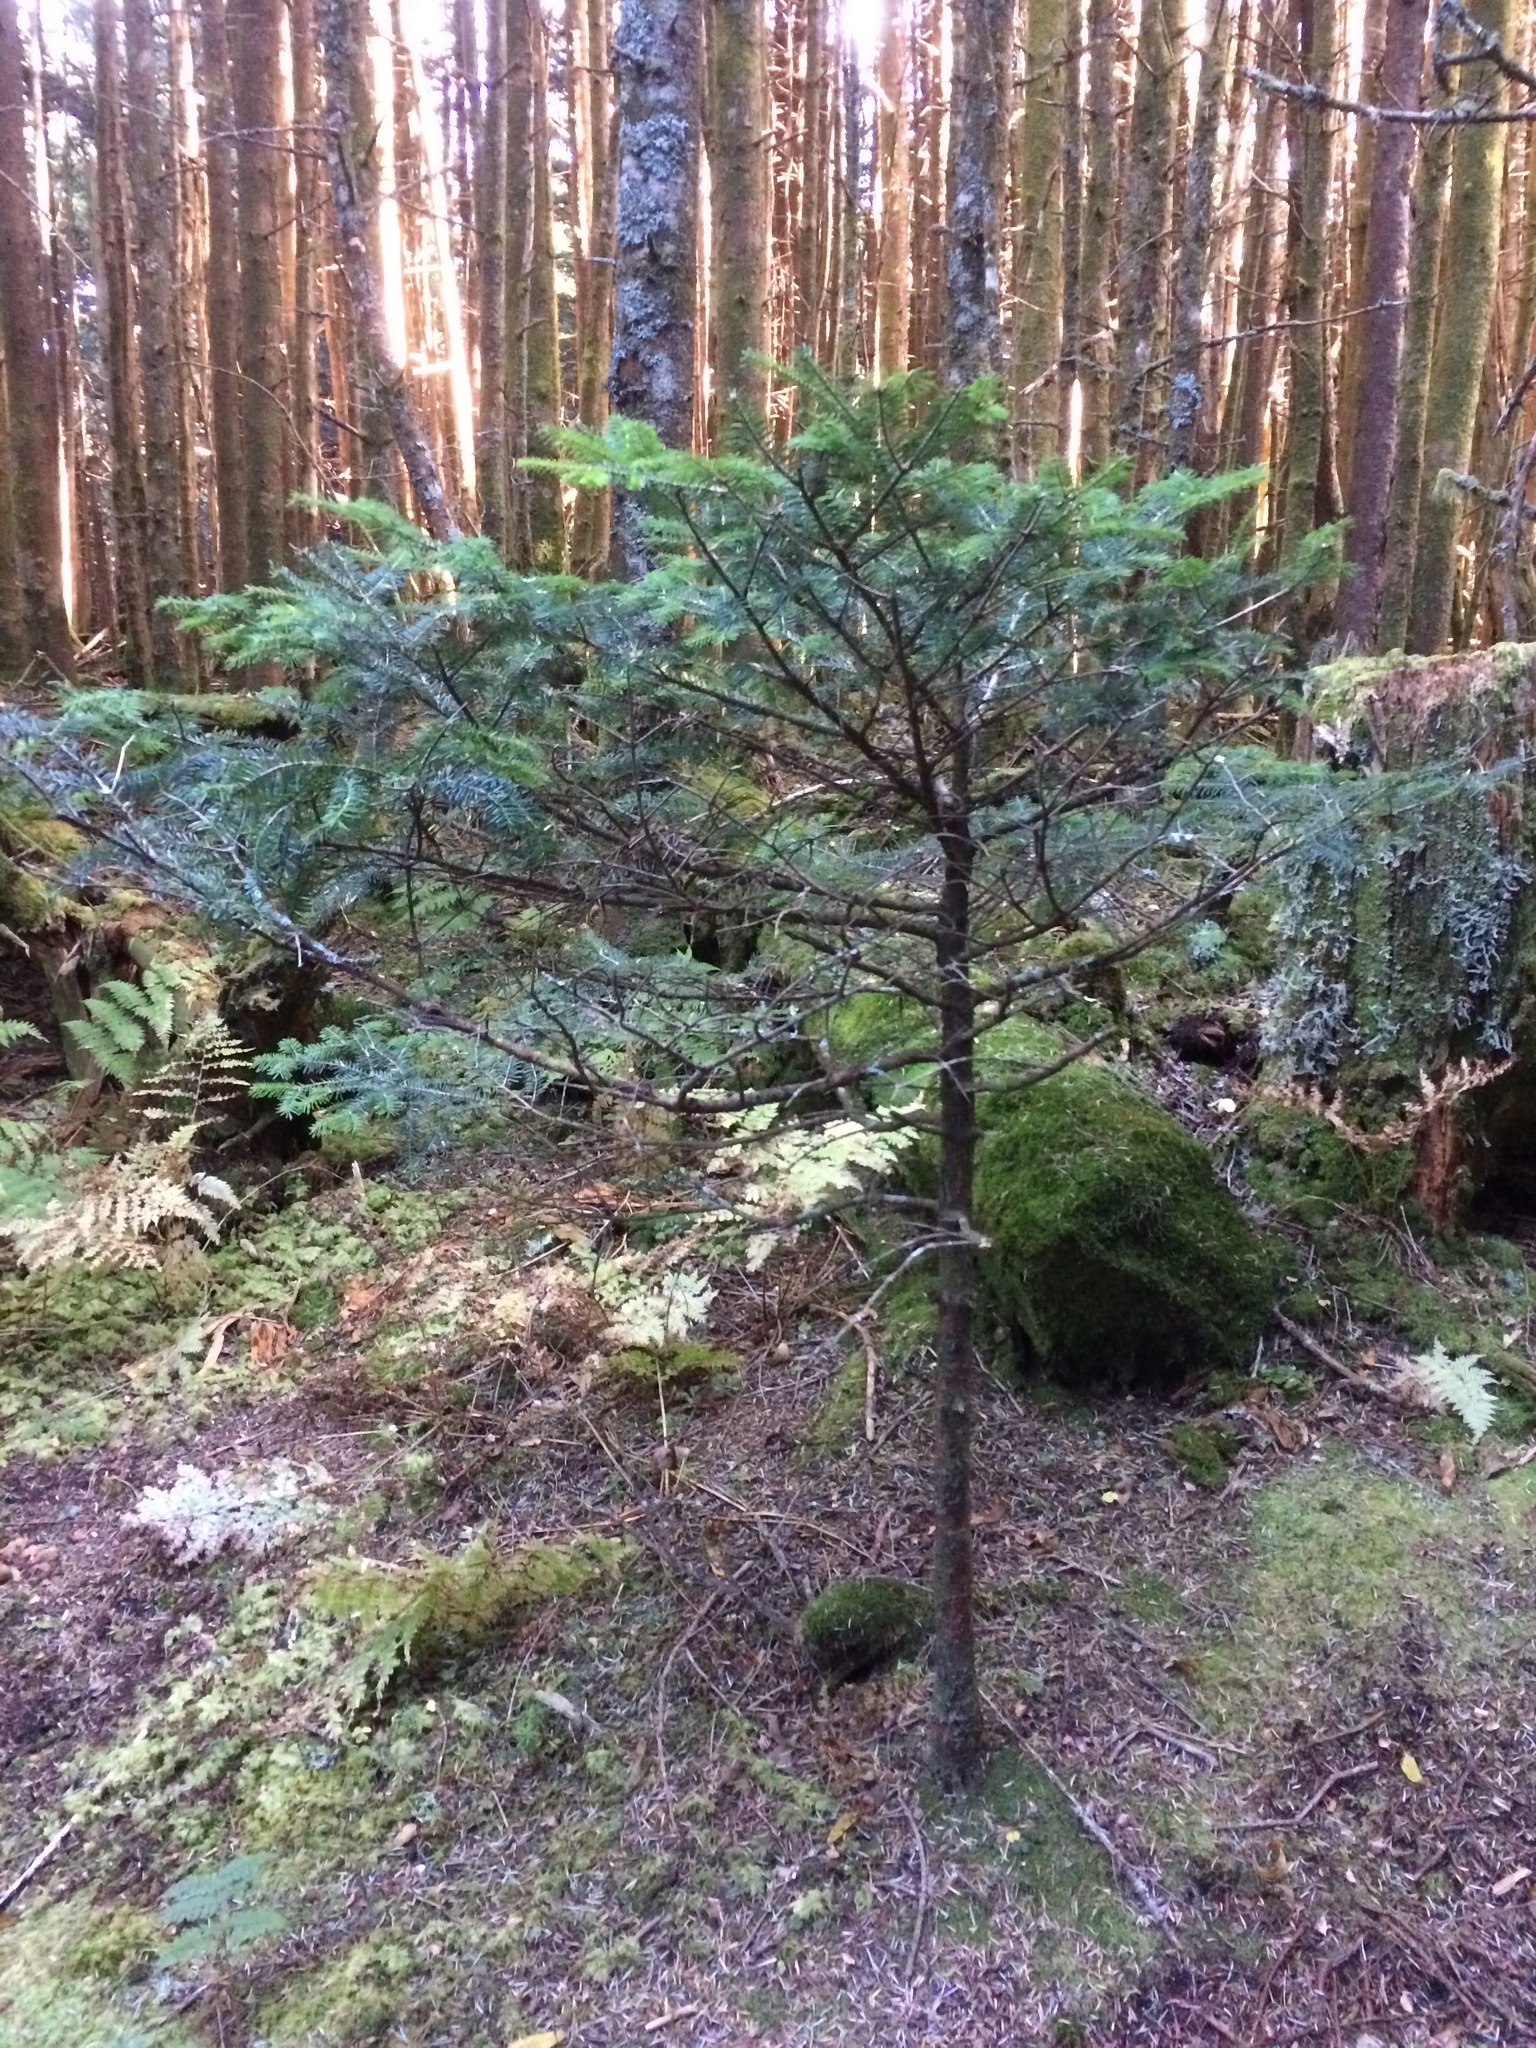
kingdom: Plantae
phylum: Tracheophyta
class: Pinopsida
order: Pinales
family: Pinaceae
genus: Abies
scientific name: Abies fraseri
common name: Fraser fir
